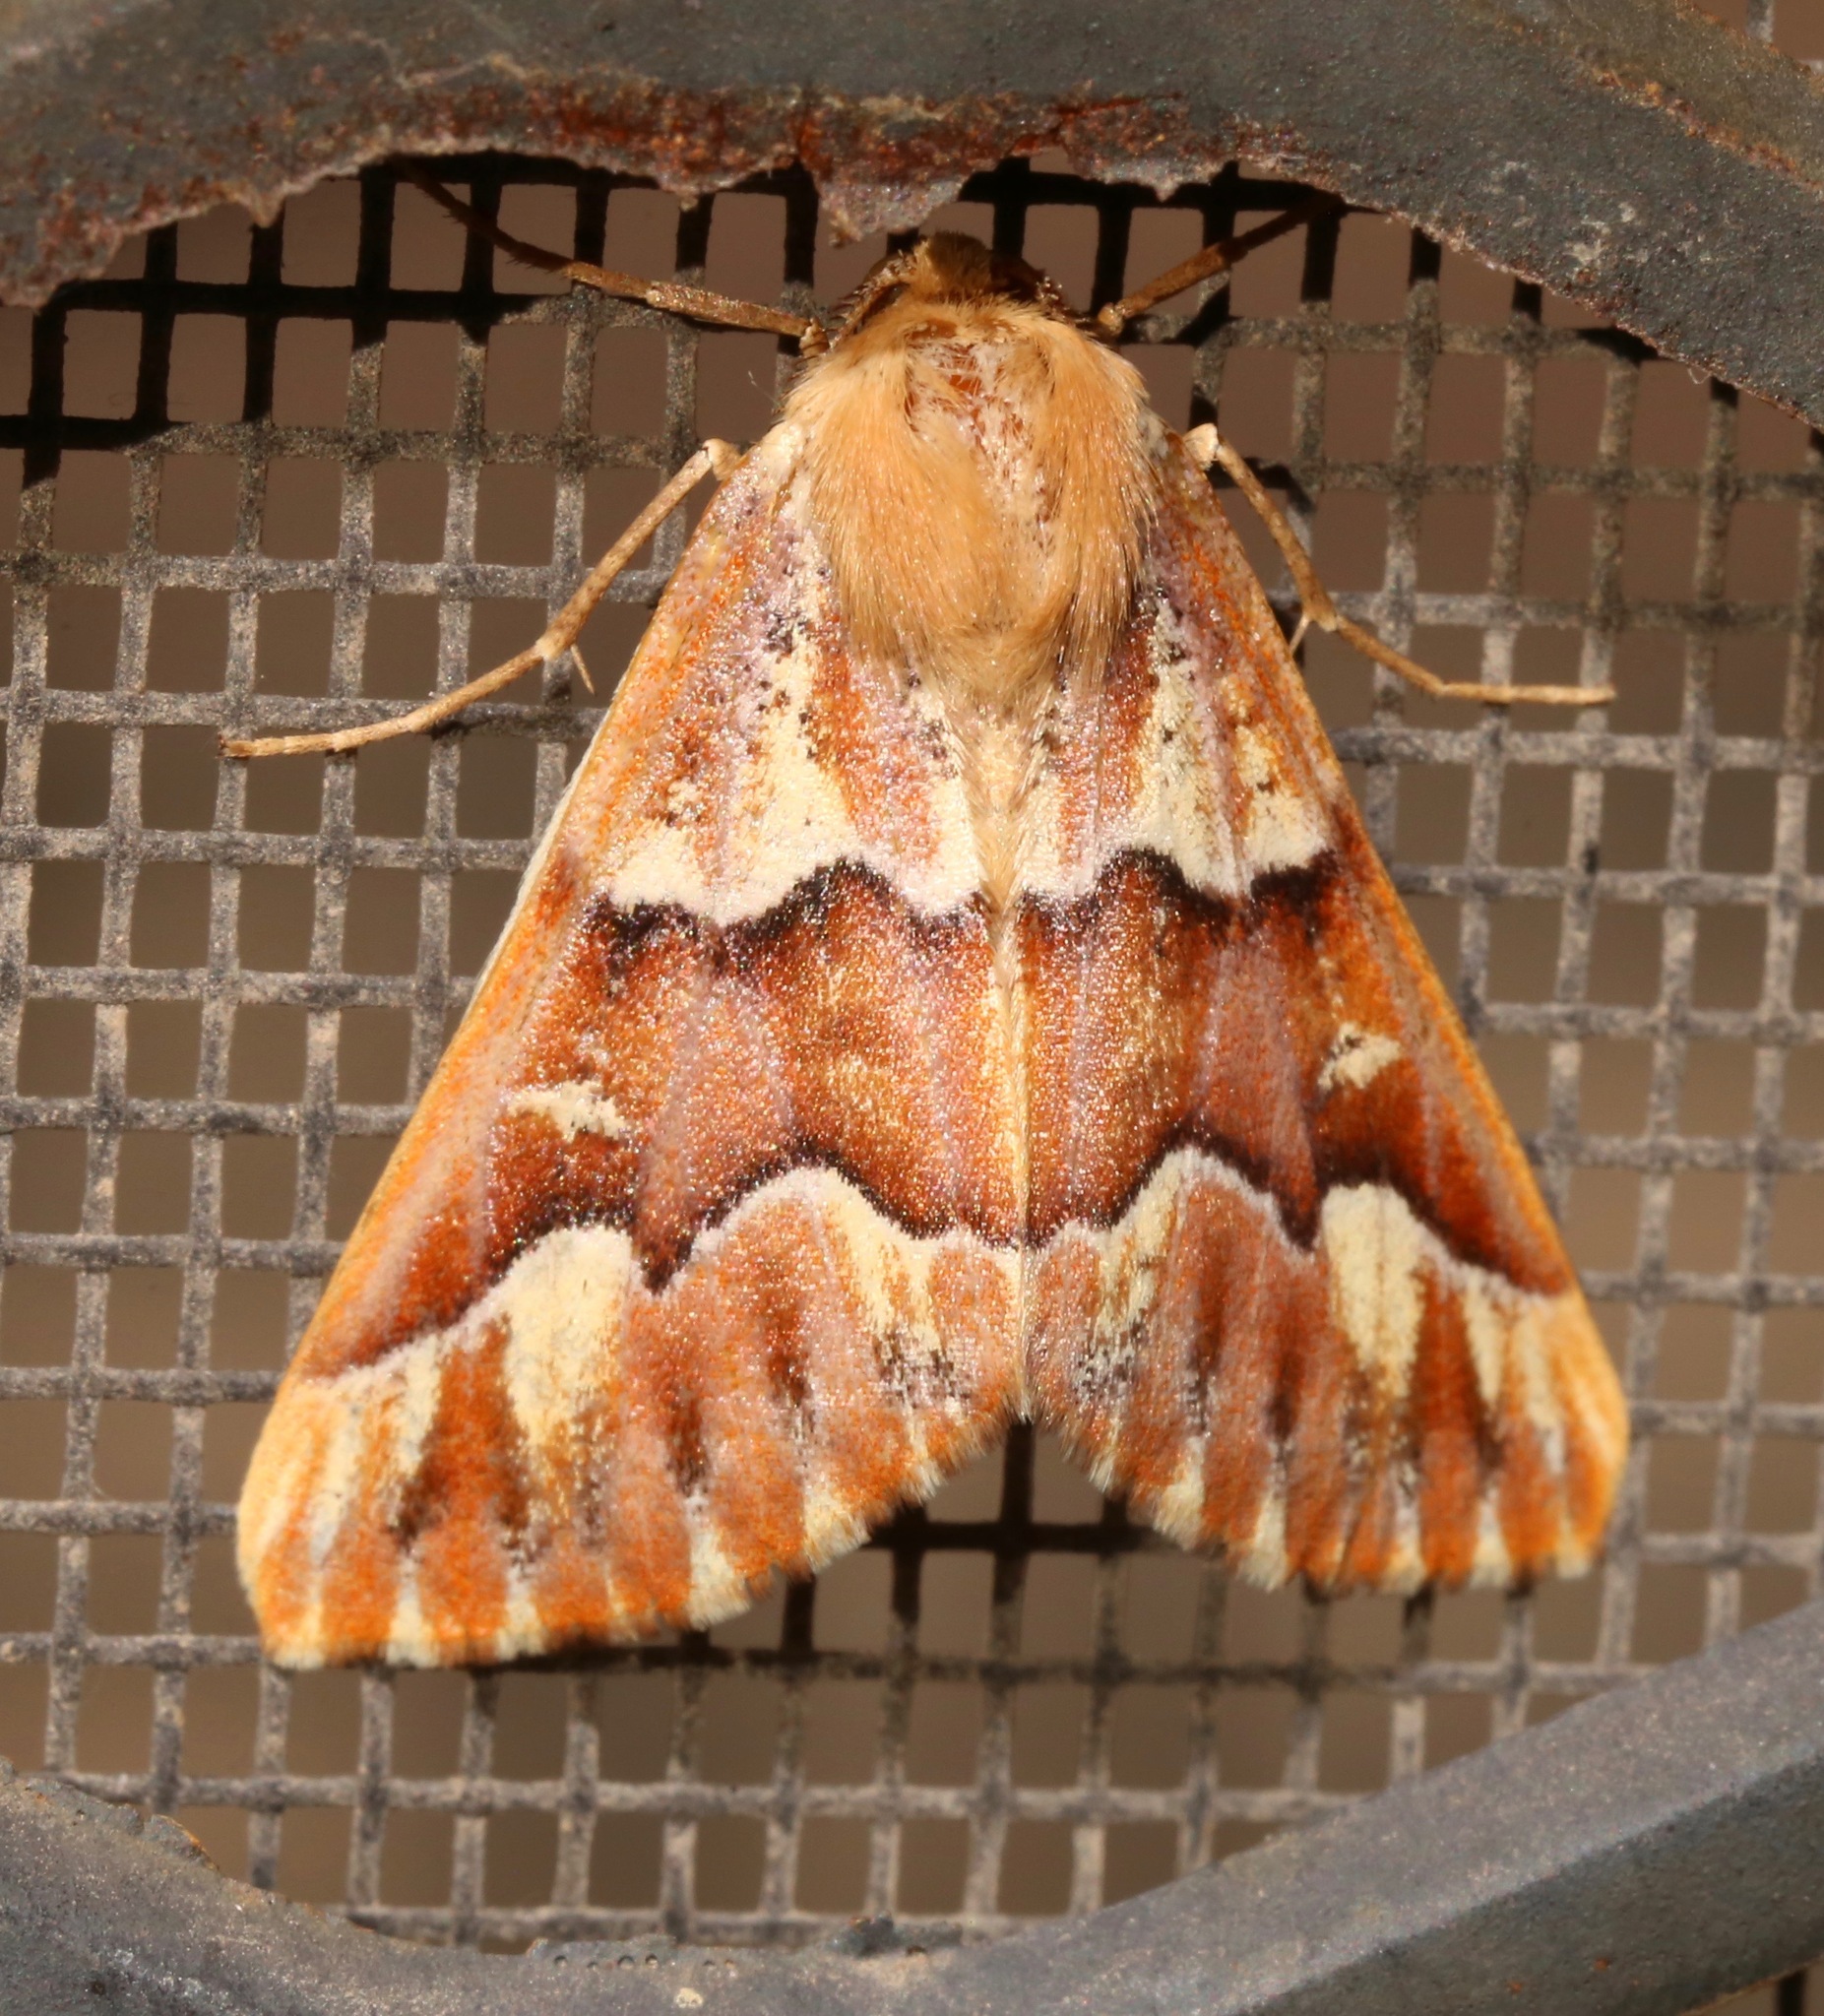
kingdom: Animalia
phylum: Arthropoda
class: Insecta
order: Lepidoptera
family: Geometridae
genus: Caripeta
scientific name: Caripeta aequaliaria
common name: Red girdle moth
